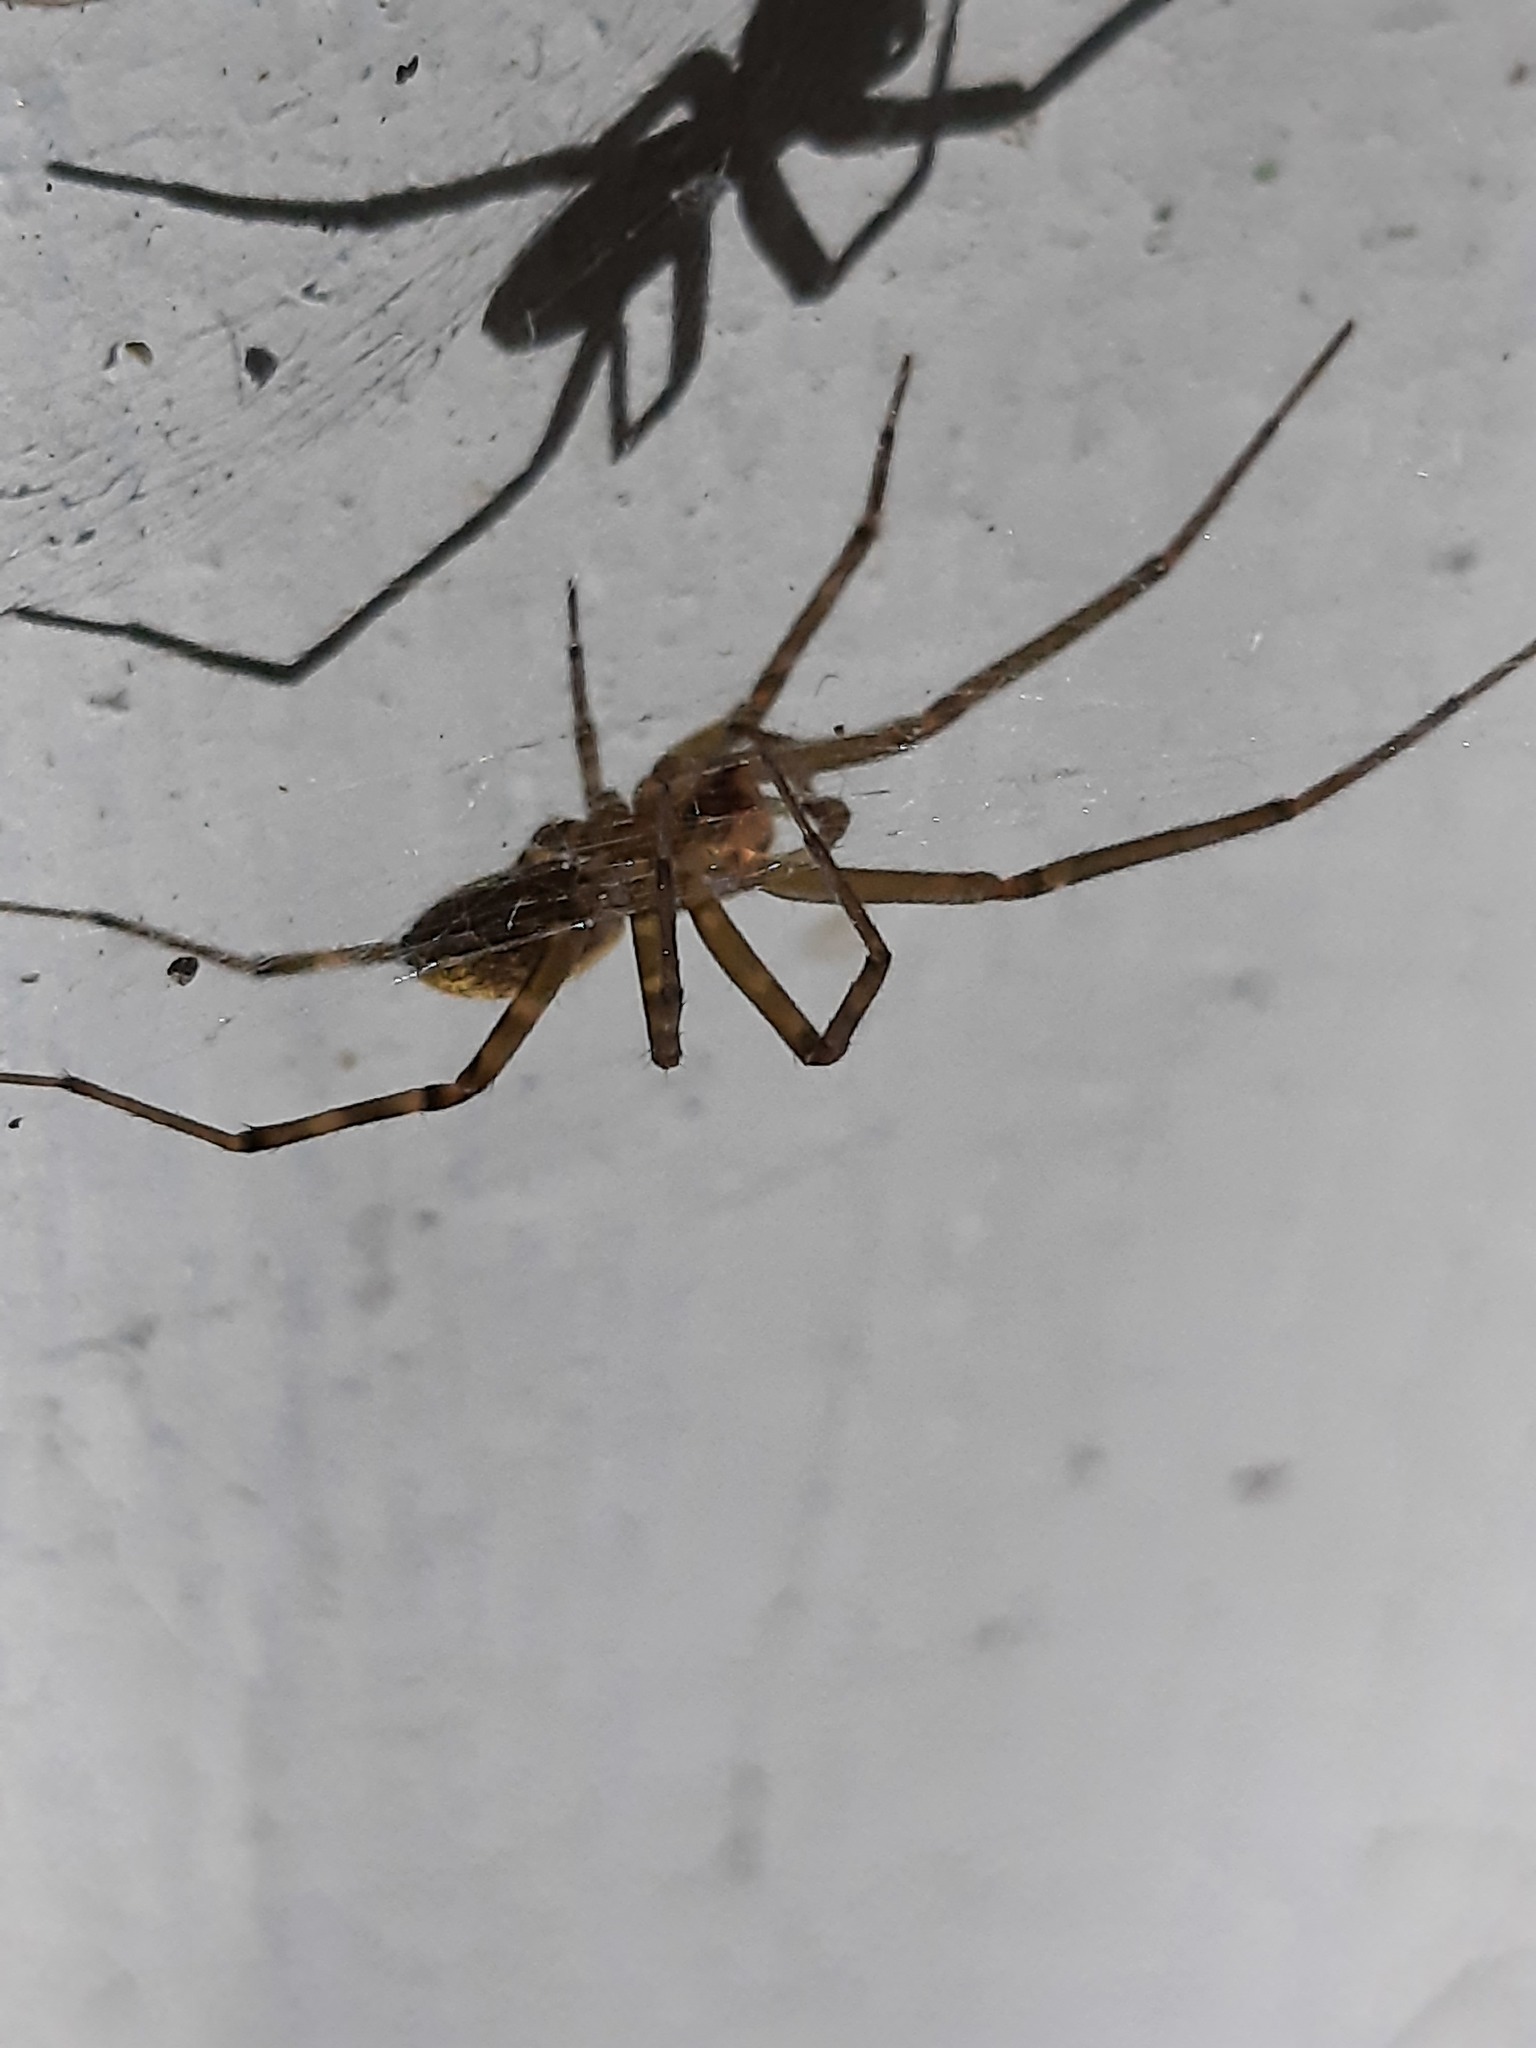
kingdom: Animalia
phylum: Arthropoda
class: Arachnida
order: Araneae
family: Stiphidiidae
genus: Stiphidion
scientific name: Stiphidion facetum
